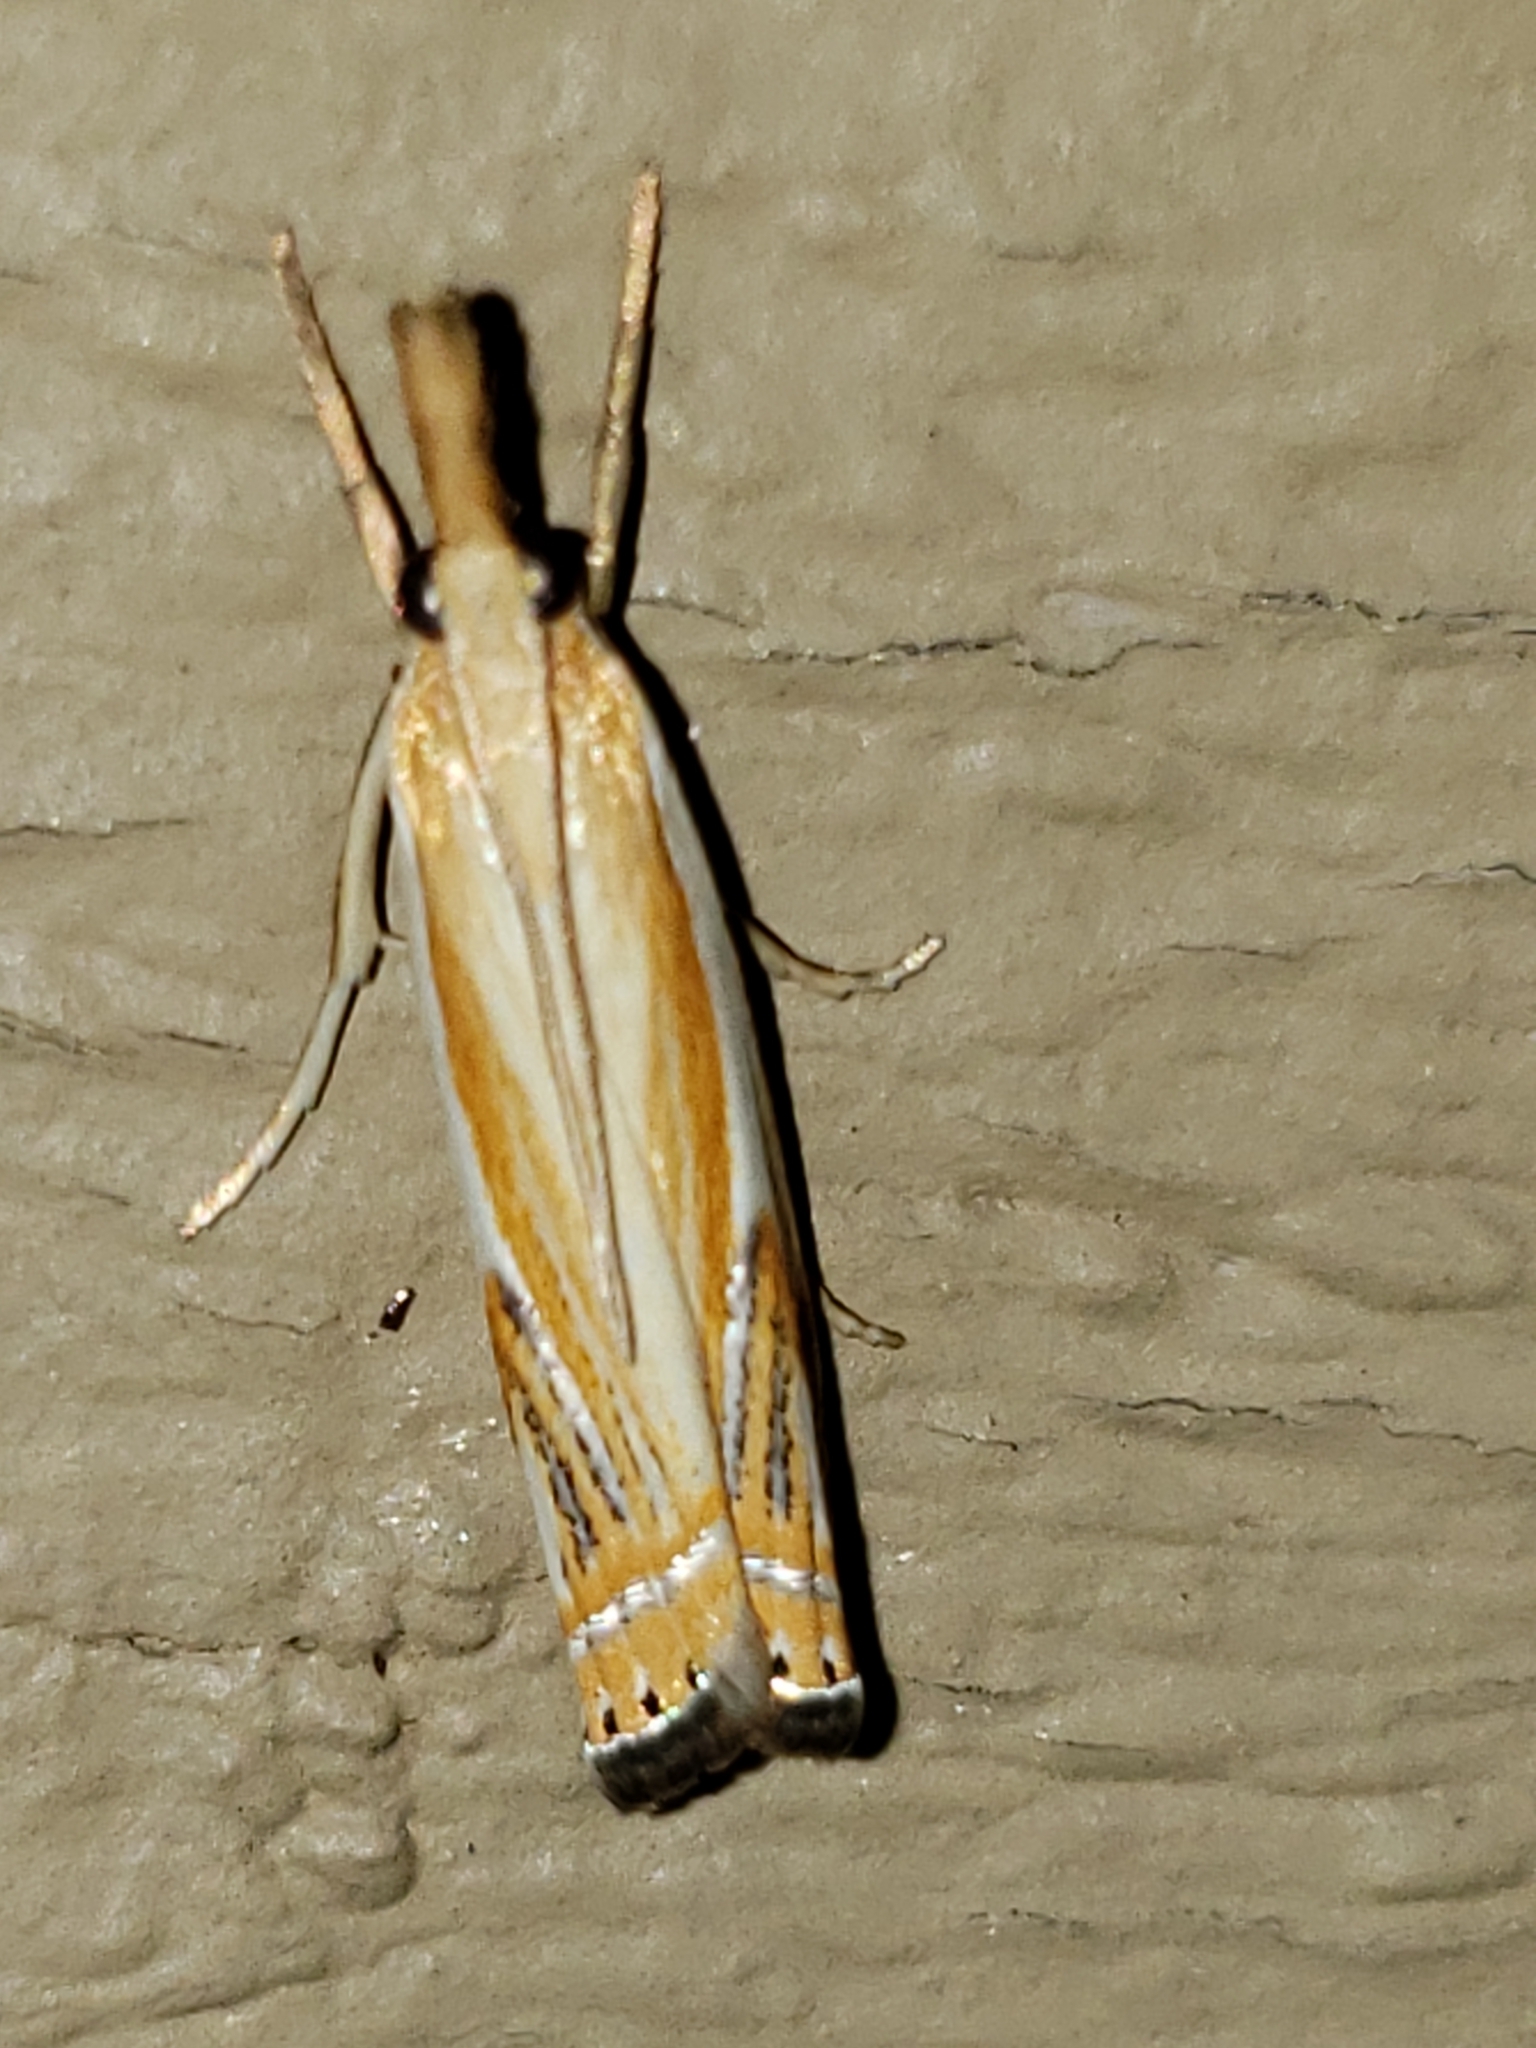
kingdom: Animalia
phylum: Arthropoda
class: Insecta
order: Lepidoptera
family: Crambidae
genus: Crambus
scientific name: Crambus
